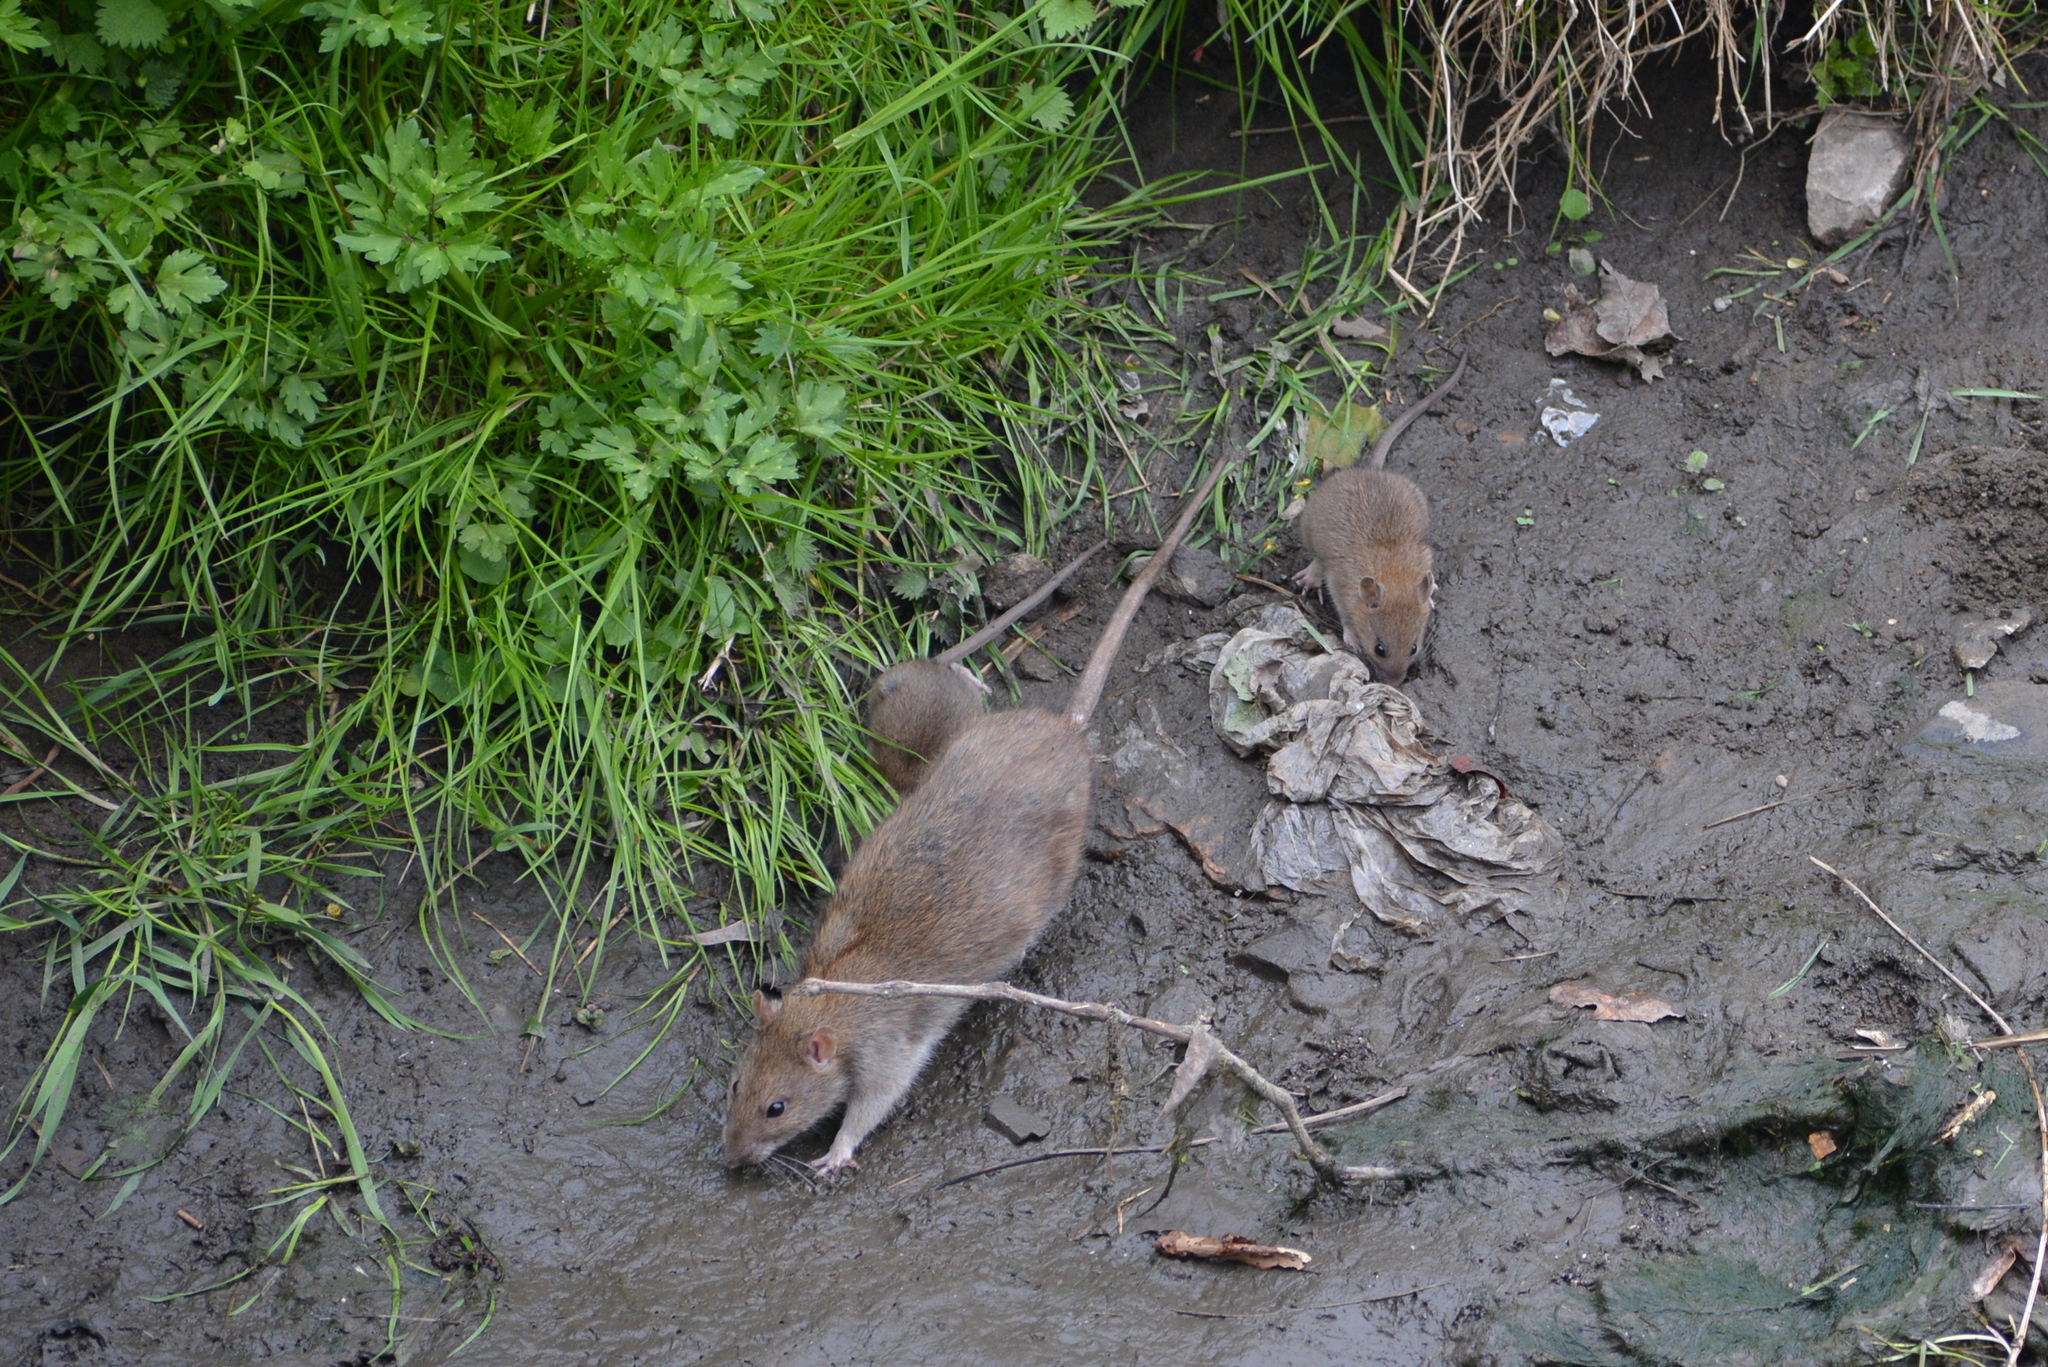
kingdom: Animalia
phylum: Chordata
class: Mammalia
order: Rodentia
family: Muridae
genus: Rattus
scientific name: Rattus norvegicus
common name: Brown rat
